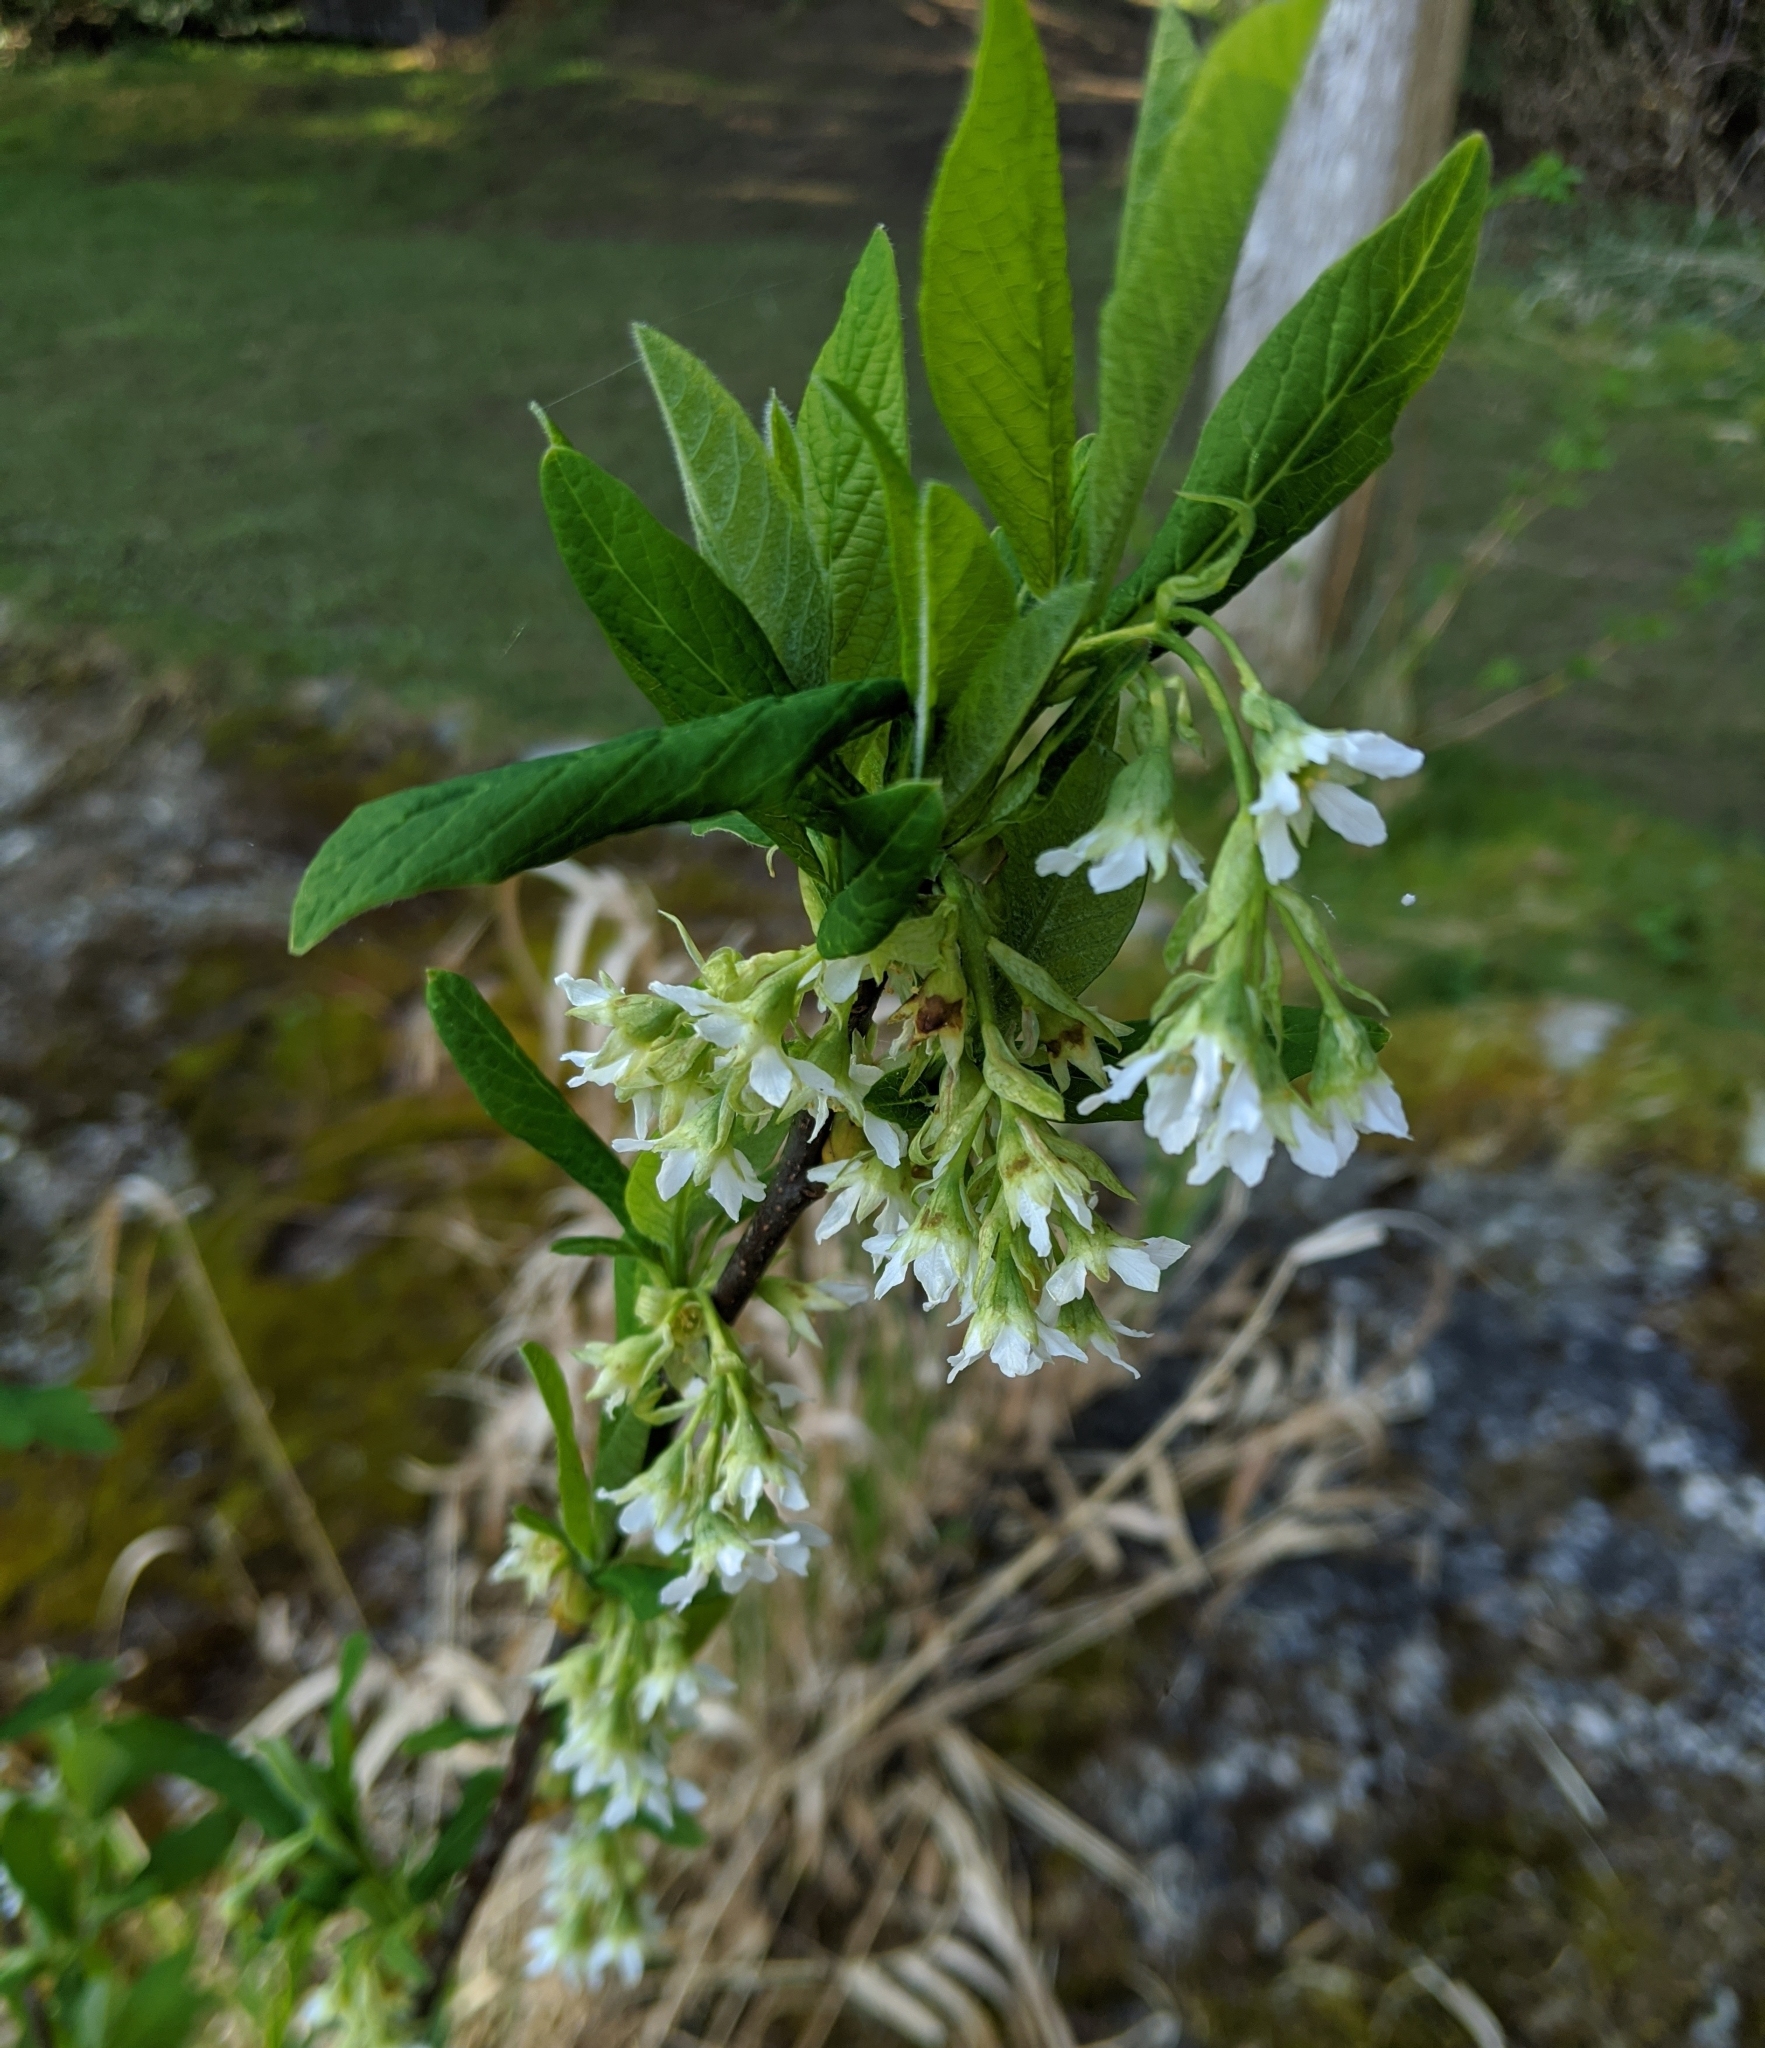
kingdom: Plantae
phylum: Tracheophyta
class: Magnoliopsida
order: Rosales
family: Rosaceae
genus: Oemleria
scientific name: Oemleria cerasiformis
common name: Osoberry
